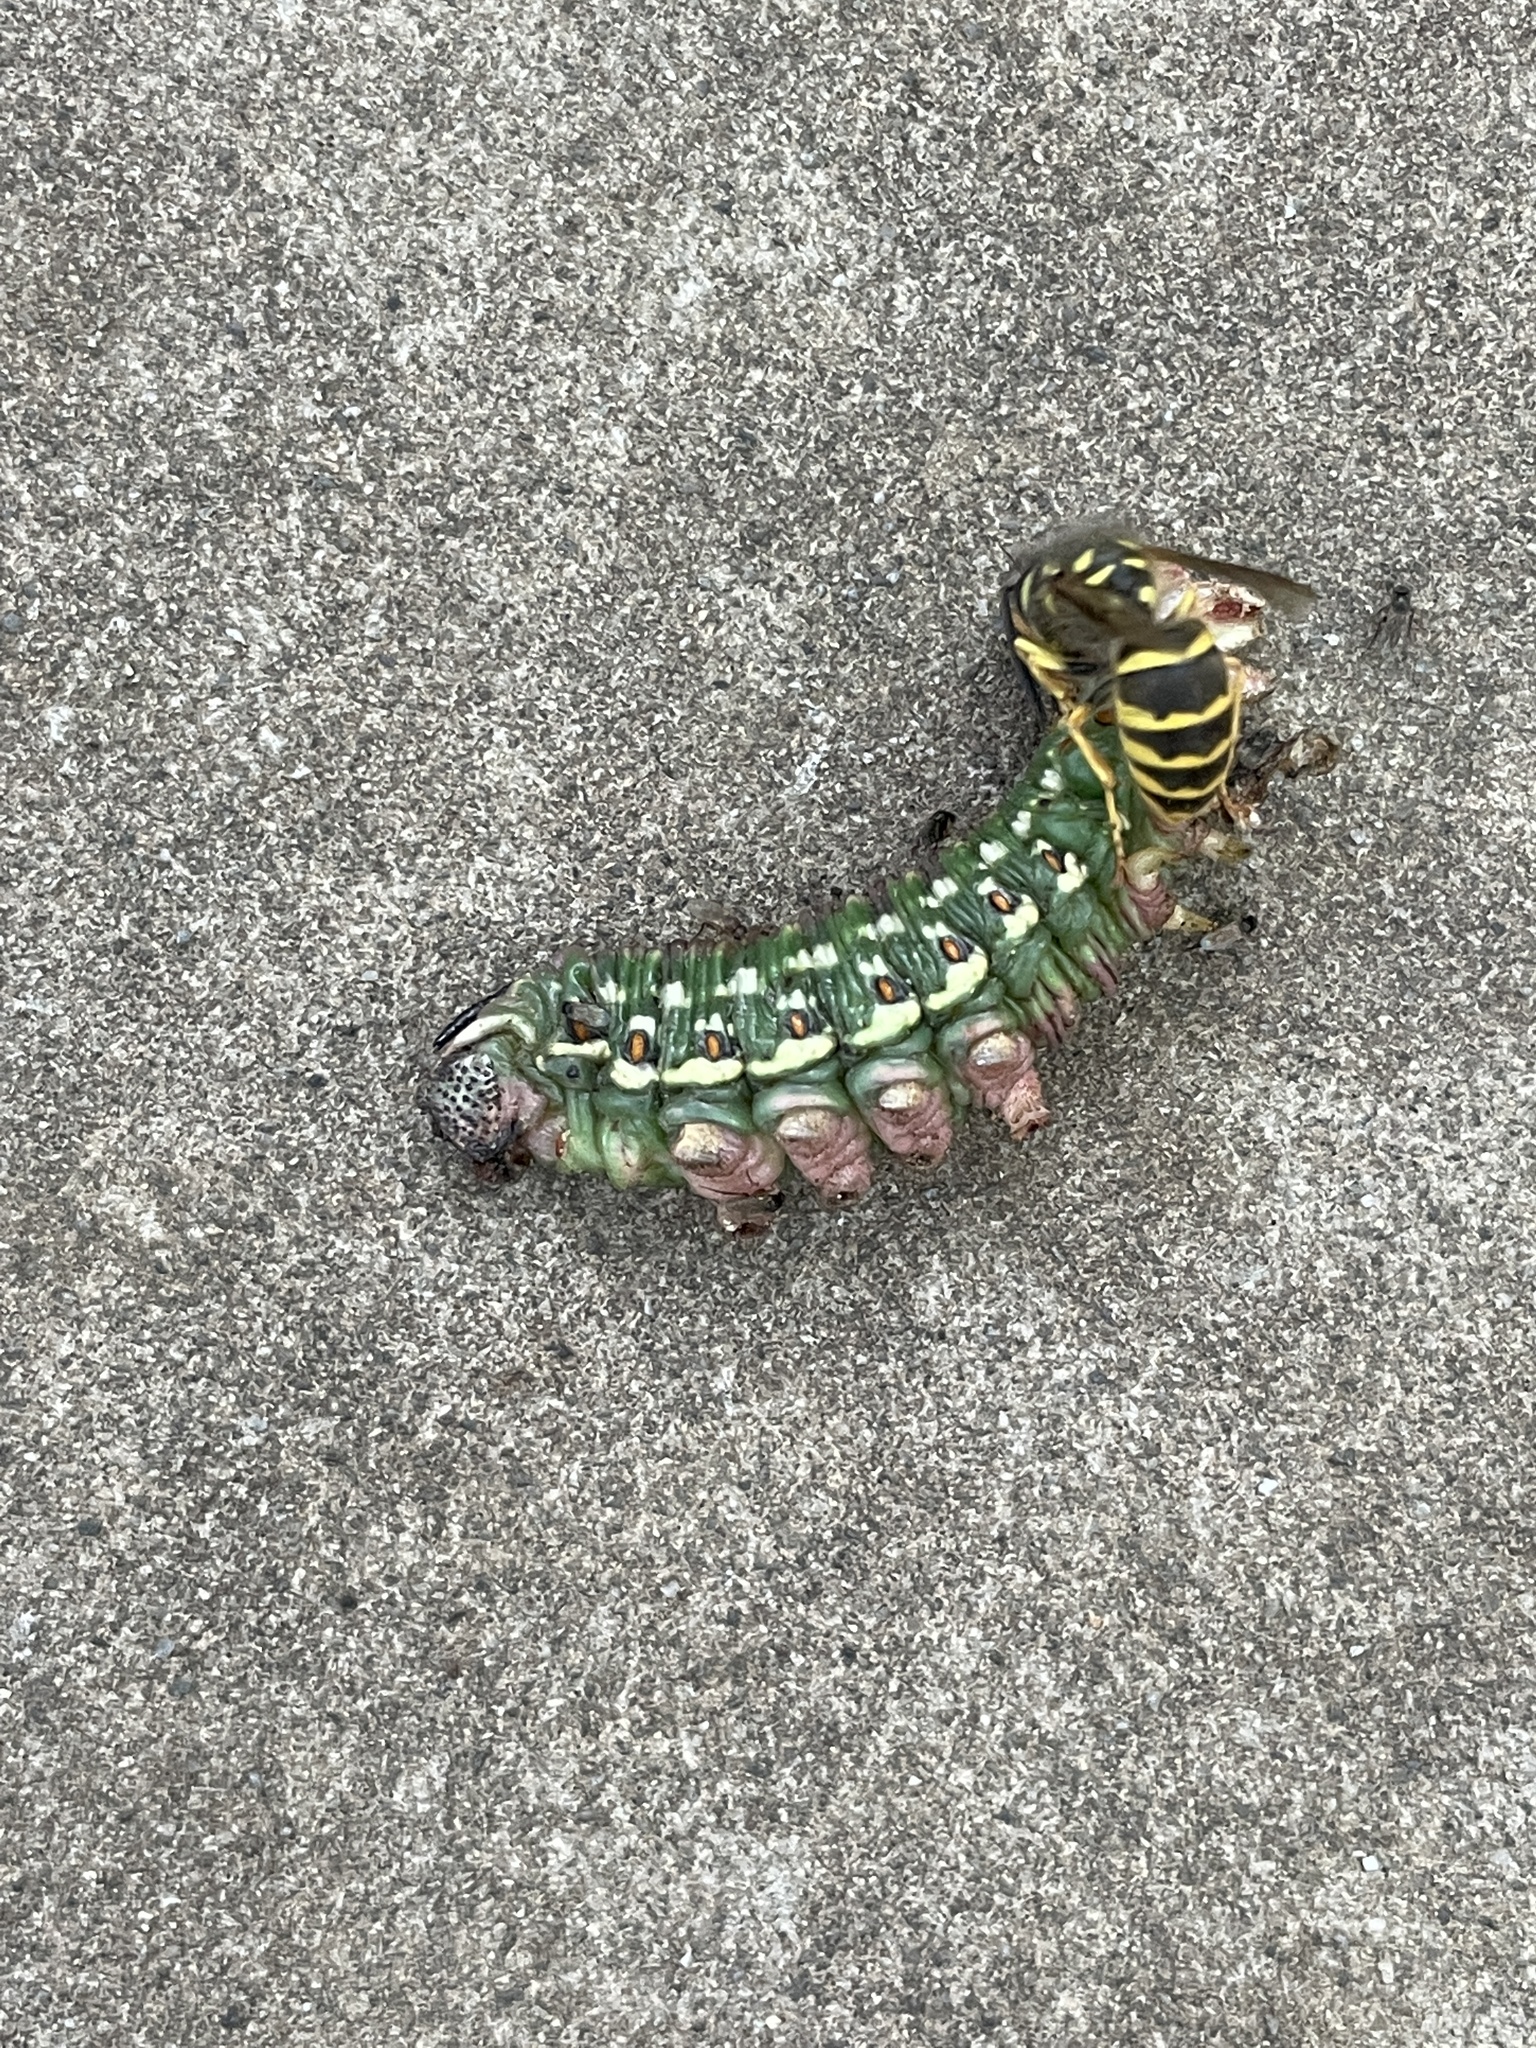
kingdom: Animalia
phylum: Arthropoda
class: Insecta
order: Lepidoptera
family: Sphingidae
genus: Sphinx
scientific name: Sphinx pinastri
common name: Pine hawk-moth
